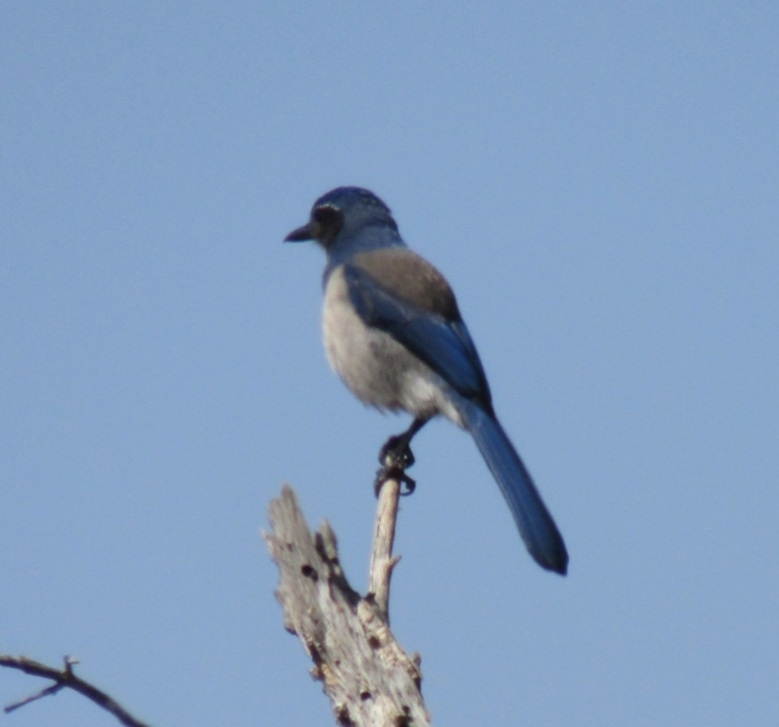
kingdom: Animalia
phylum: Chordata
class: Aves
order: Passeriformes
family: Corvidae
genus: Aphelocoma
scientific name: Aphelocoma californica
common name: California scrub-jay
